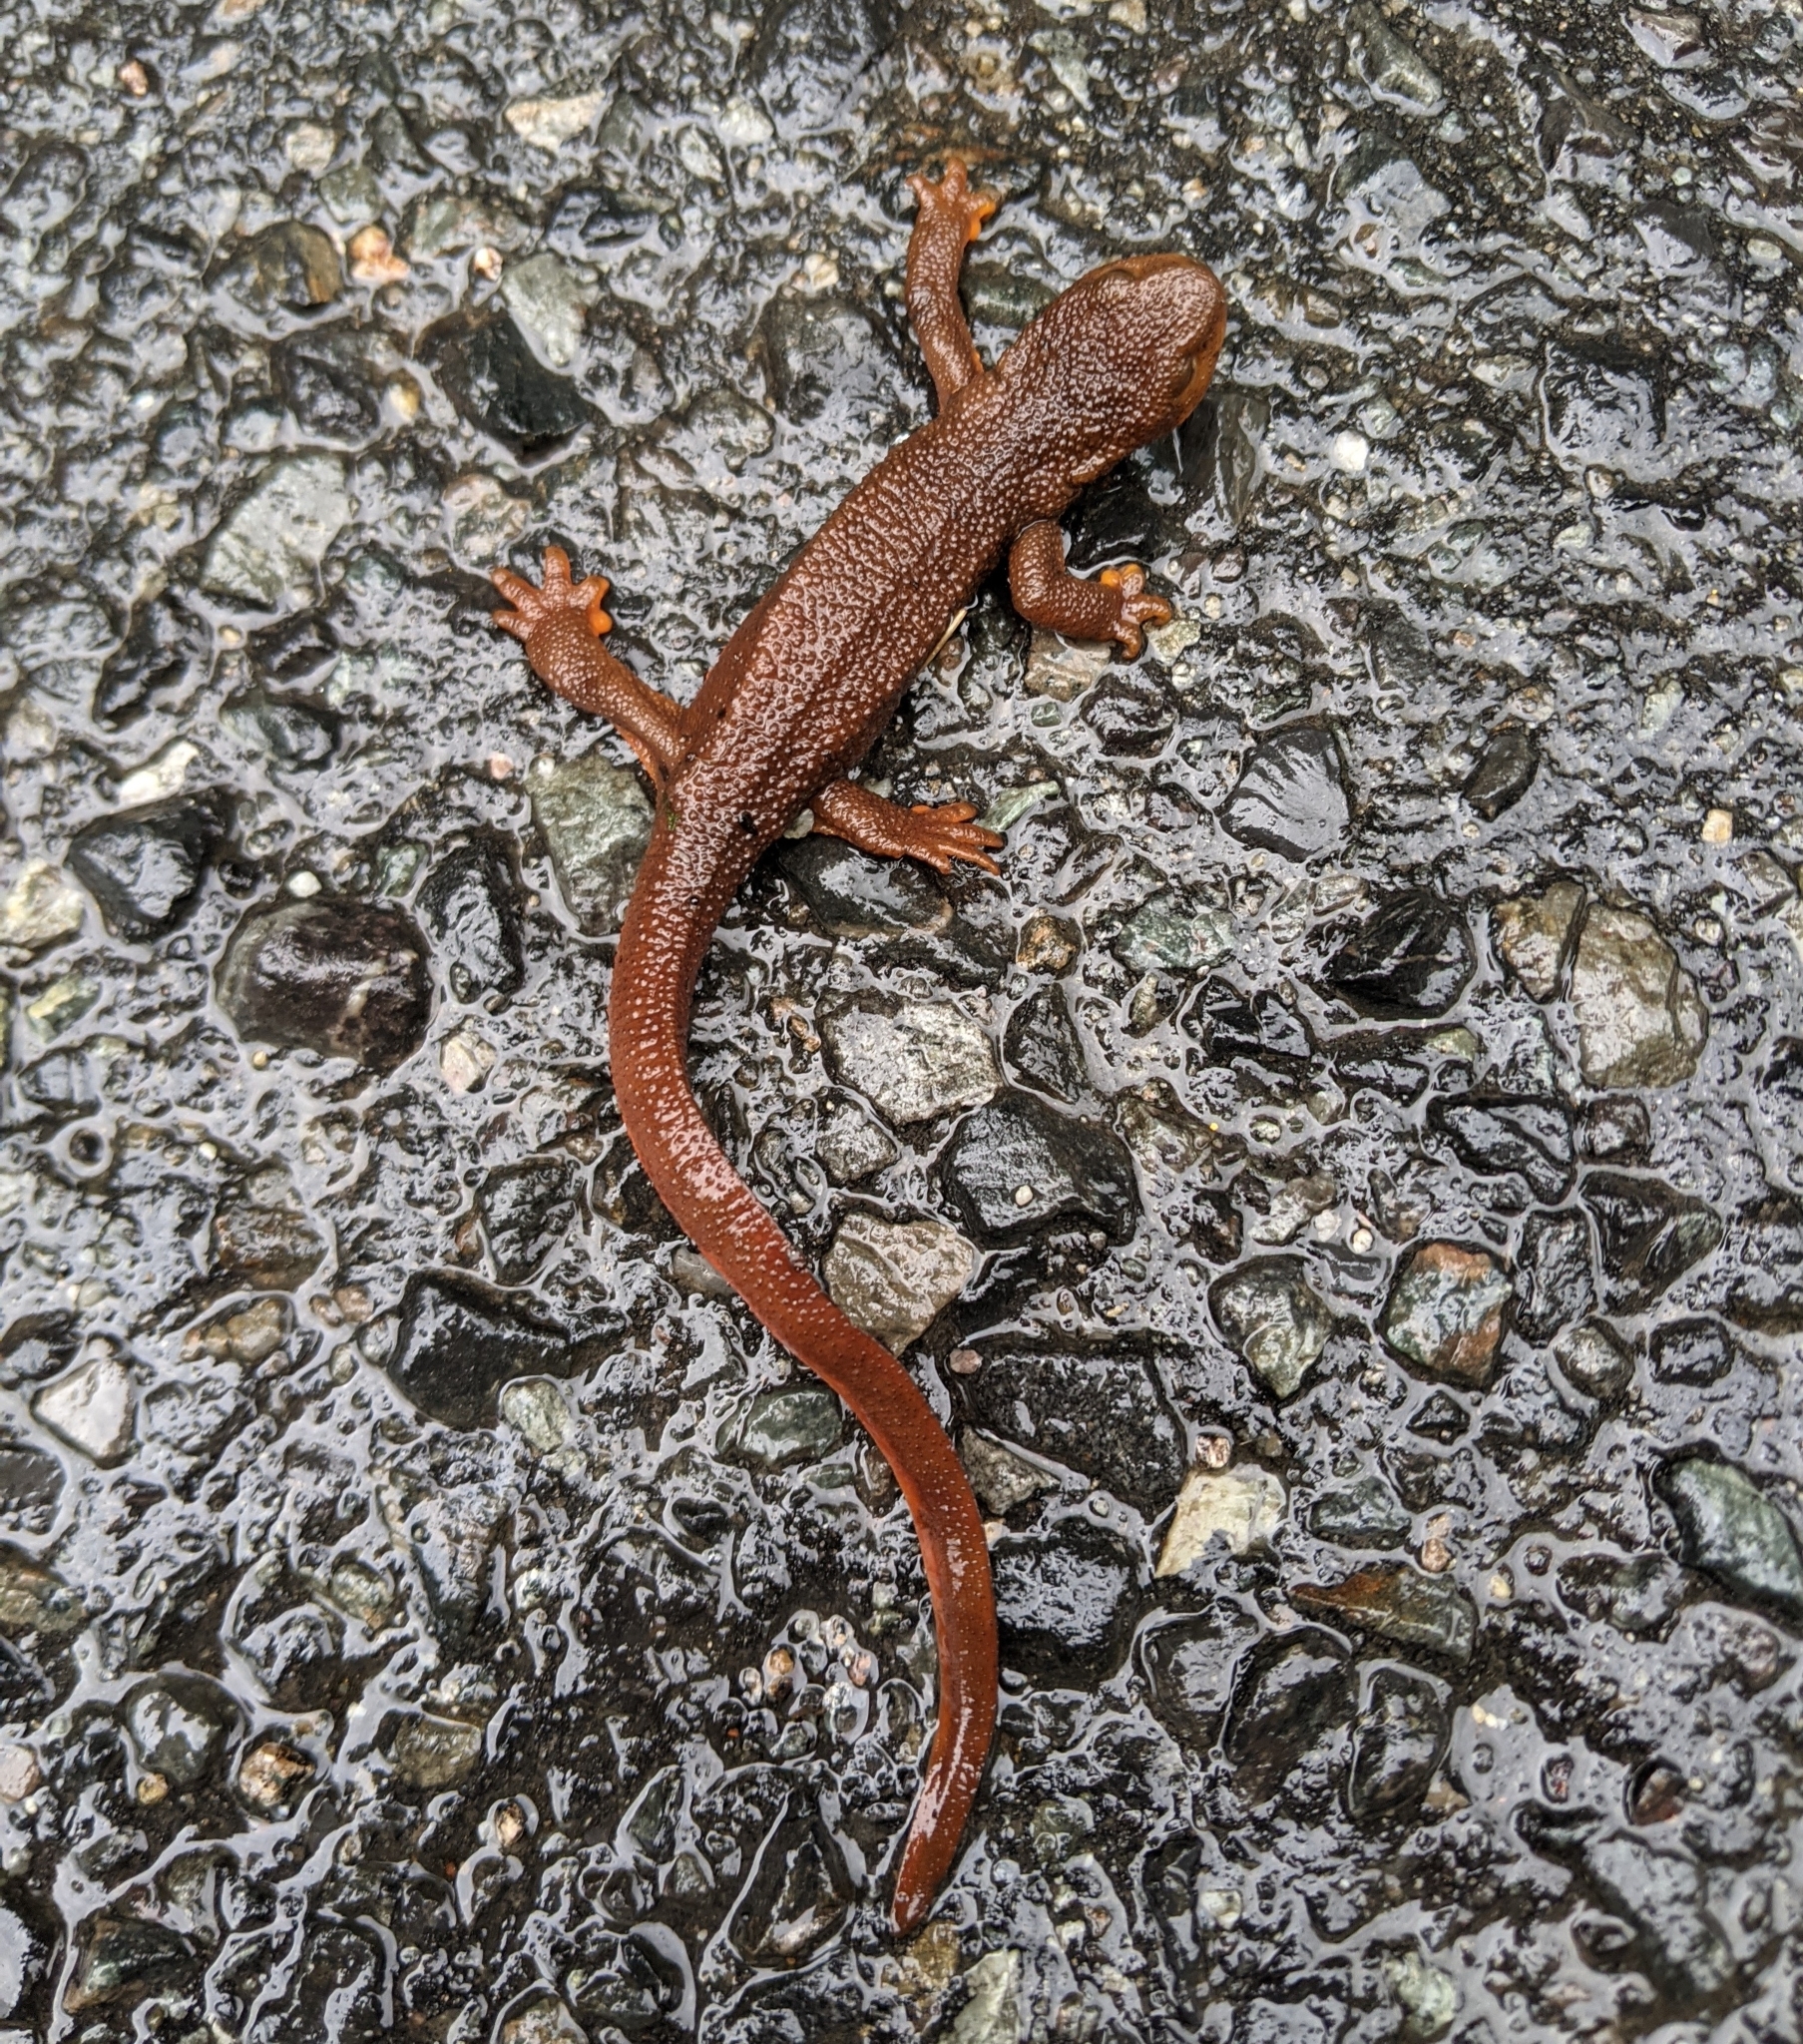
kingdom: Animalia
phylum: Chordata
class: Amphibia
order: Caudata
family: Salamandridae
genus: Taricha
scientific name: Taricha granulosa
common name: Roughskin newt
